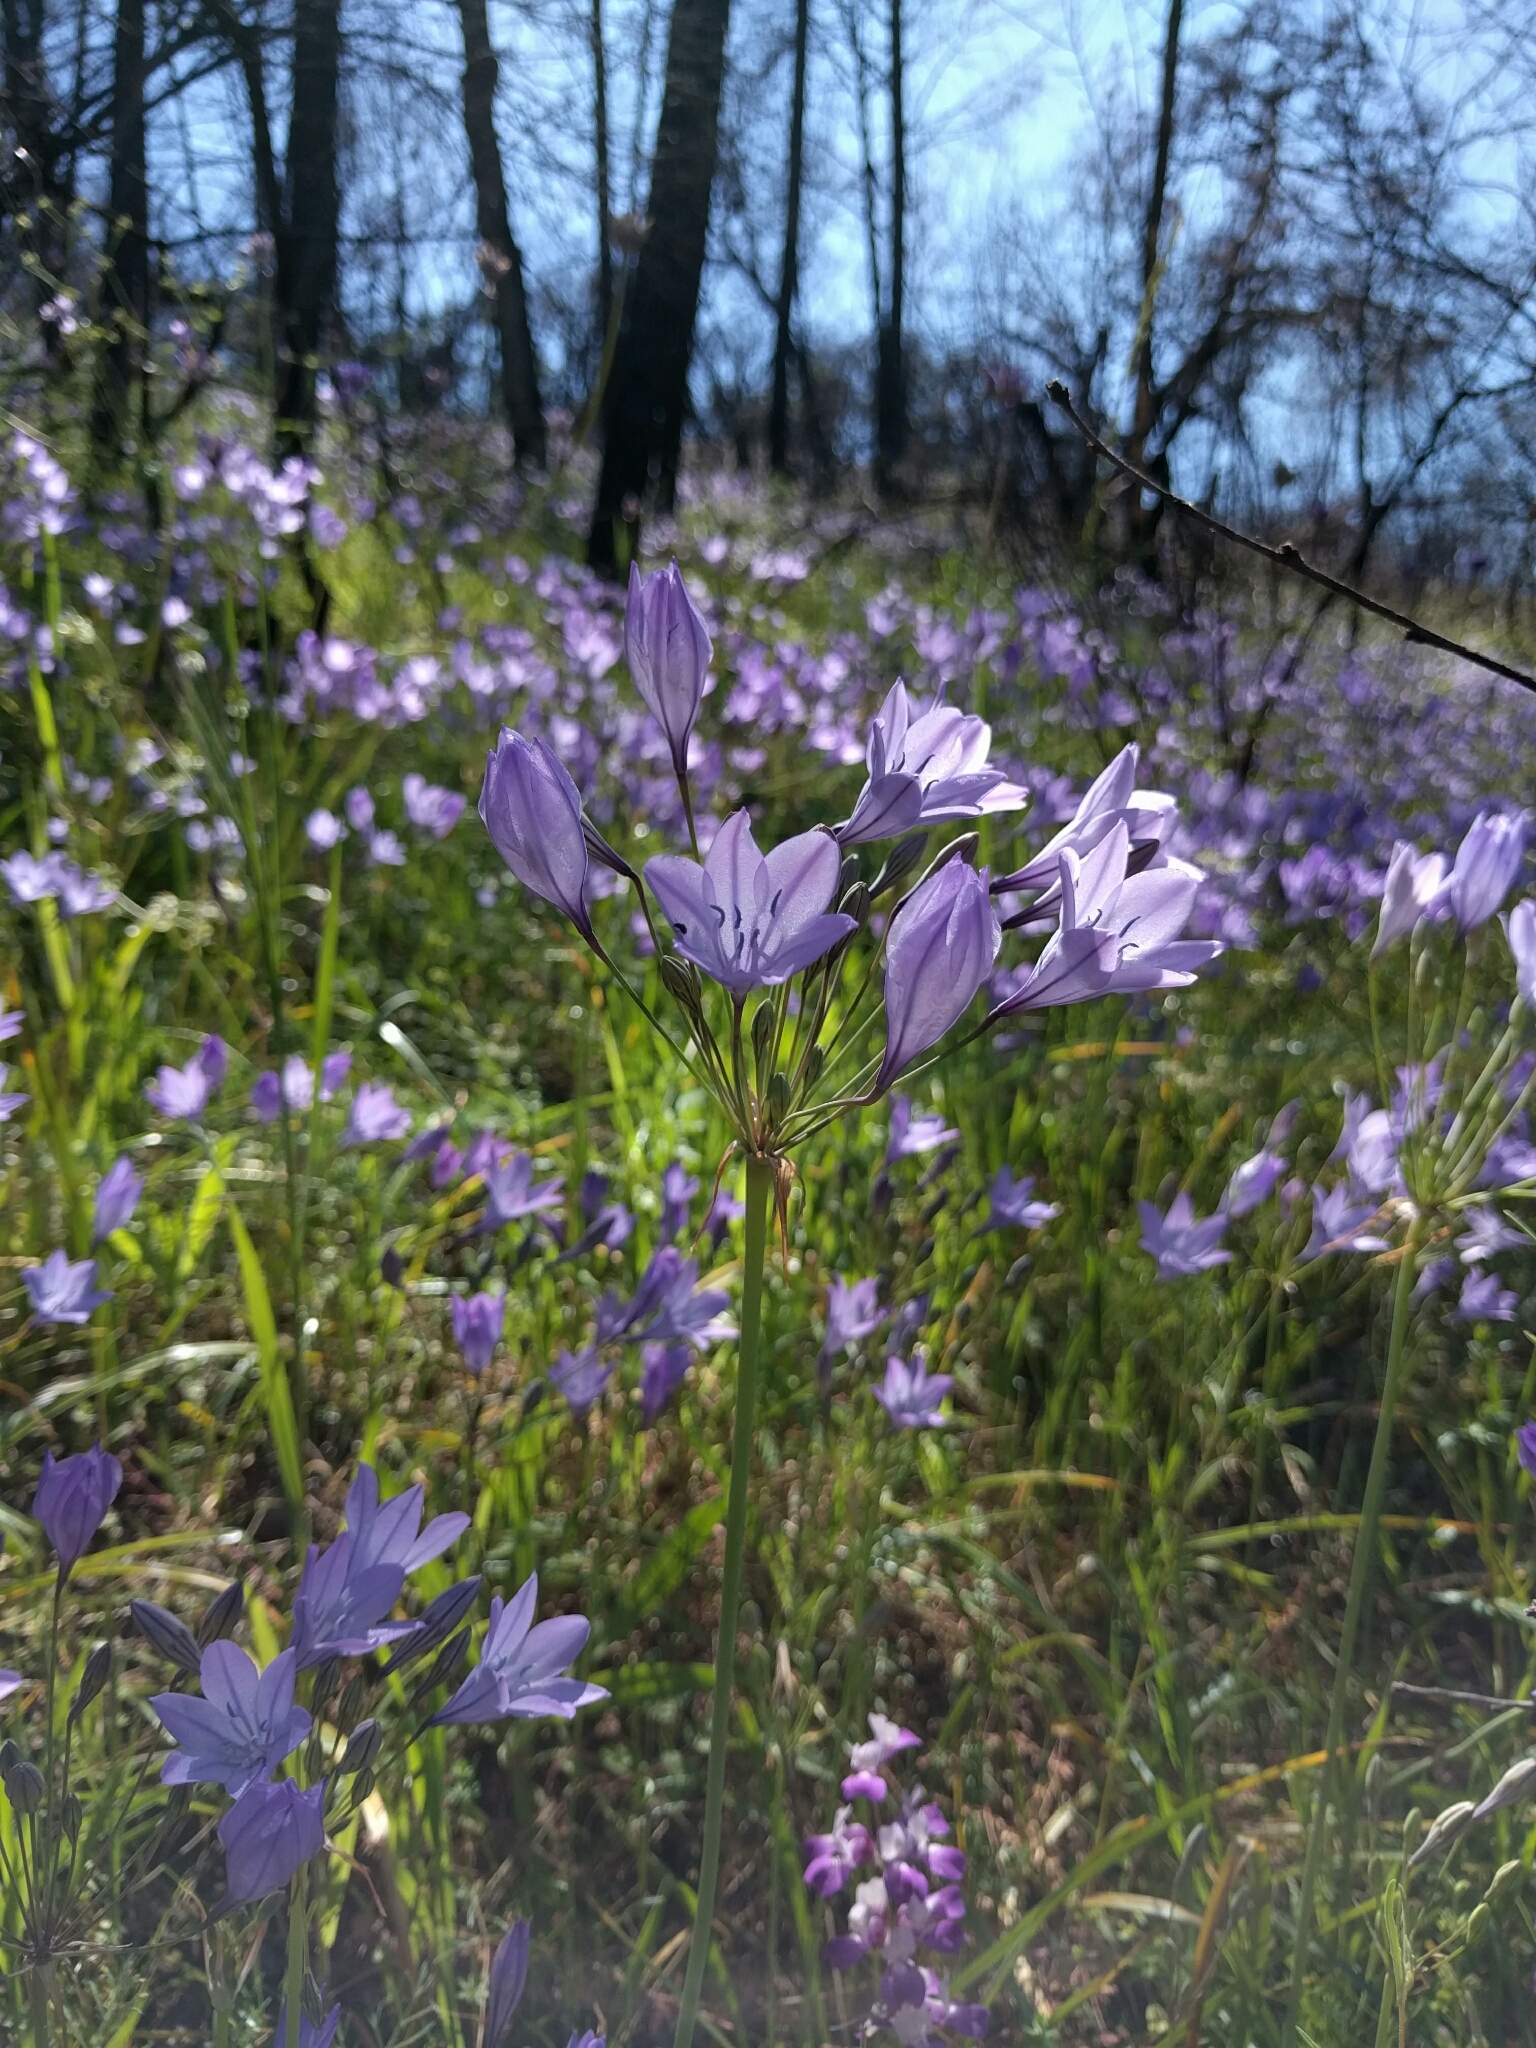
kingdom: Plantae
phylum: Tracheophyta
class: Liliopsida
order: Asparagales
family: Asparagaceae
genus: Triteleia
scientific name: Triteleia laxa
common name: Triplet-lily
